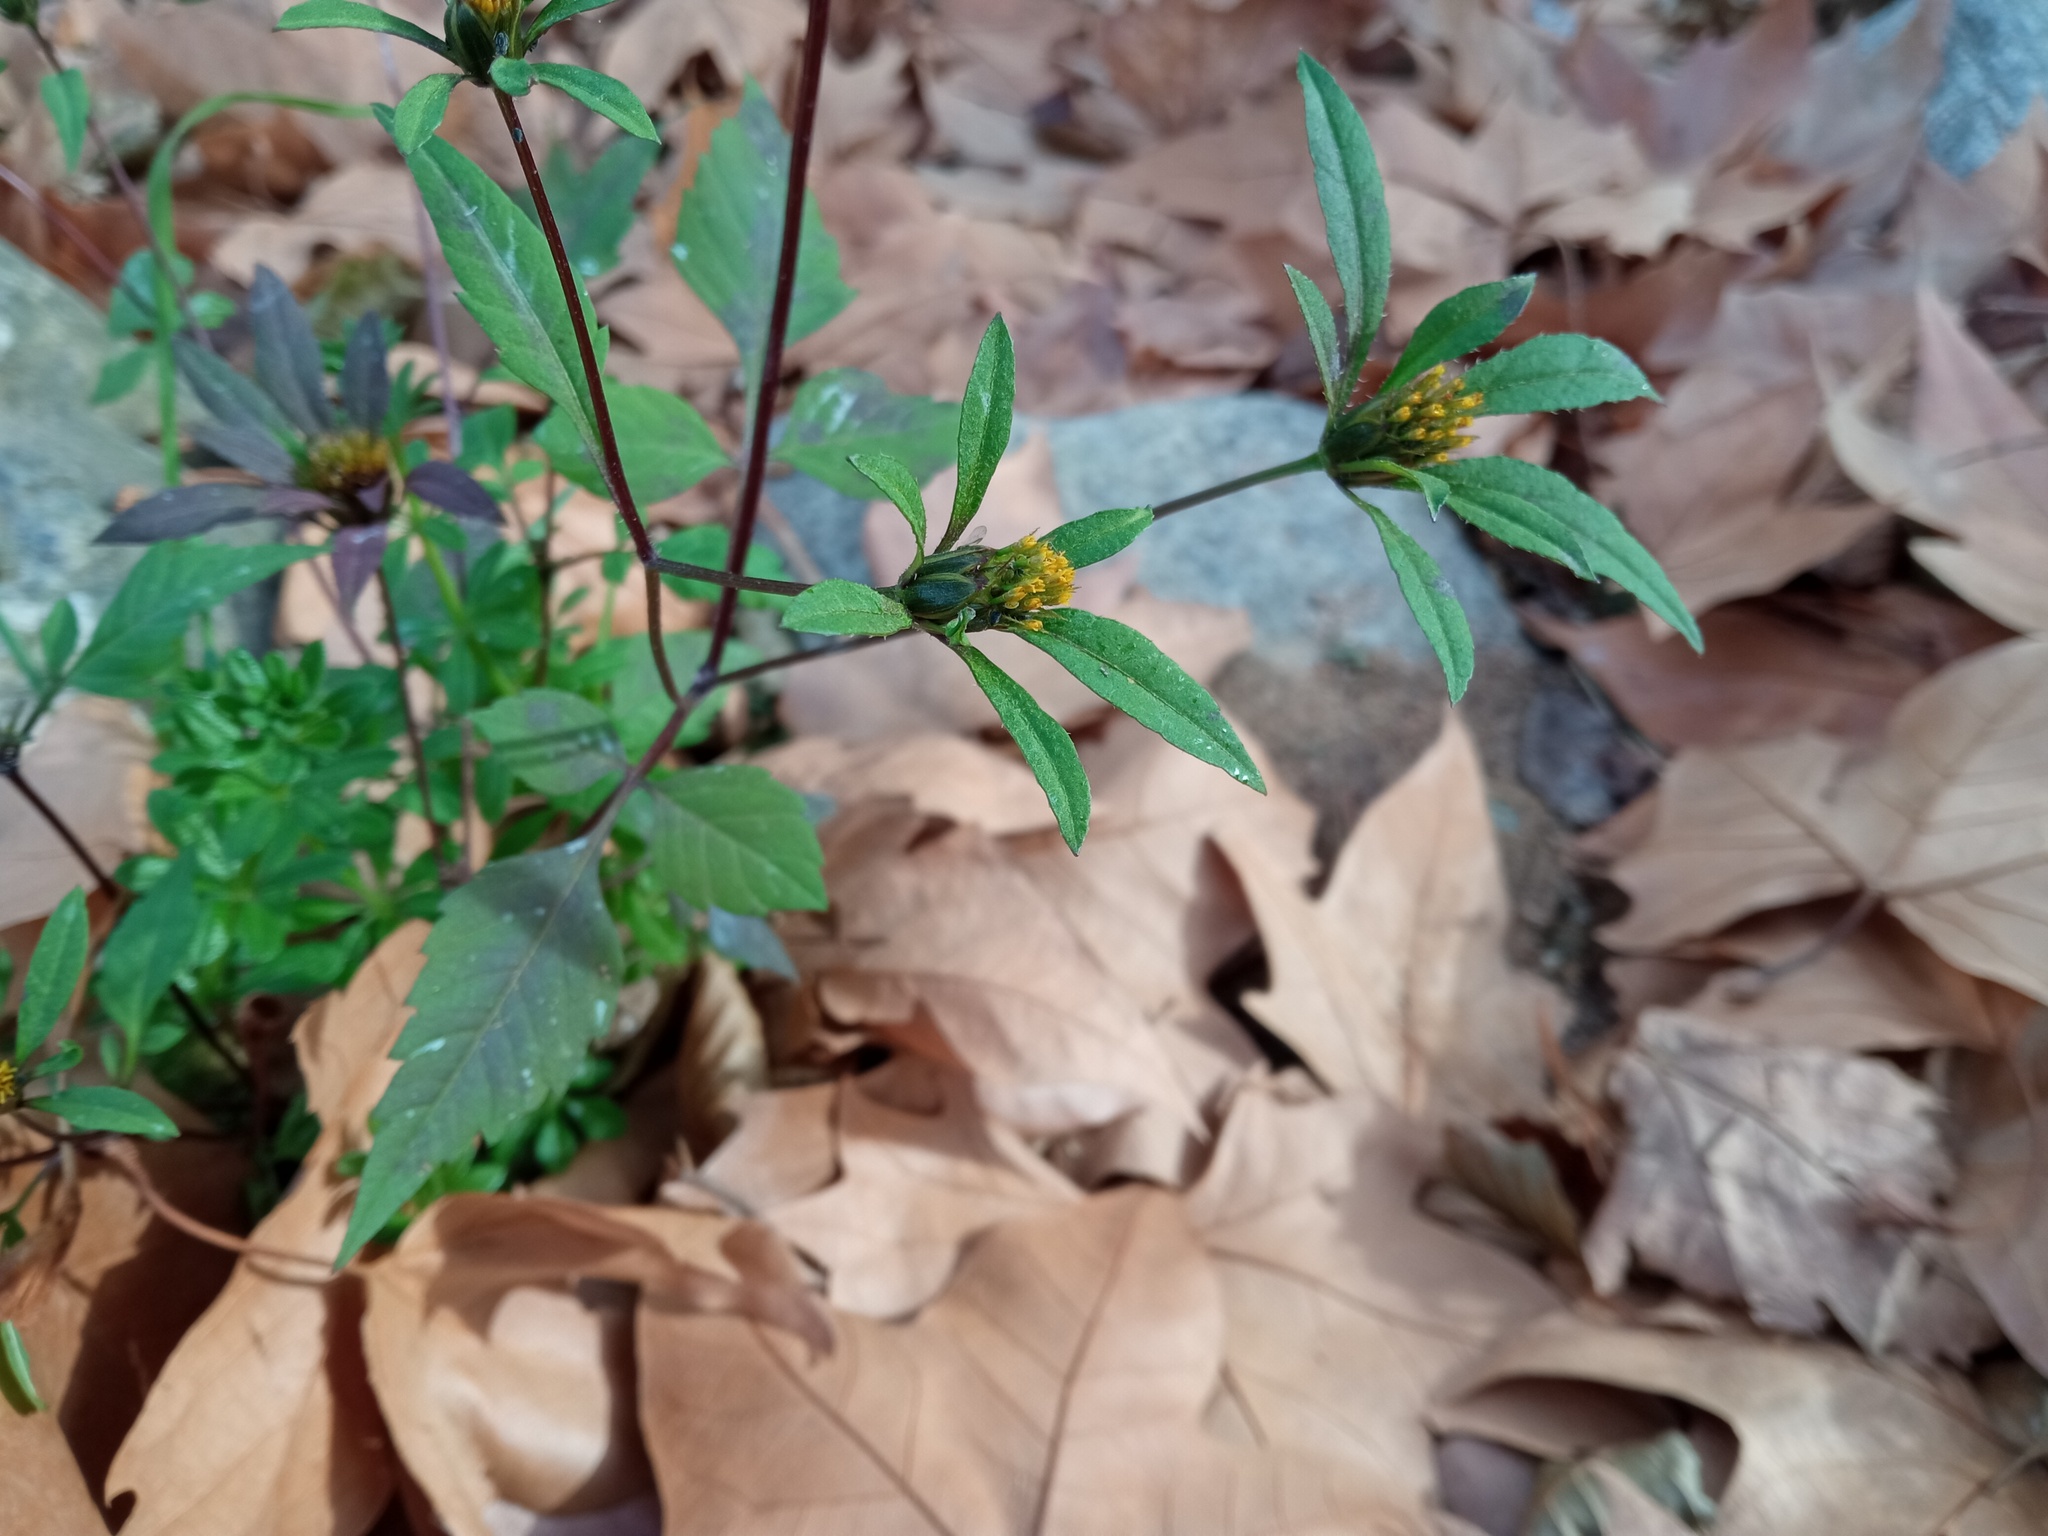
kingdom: Plantae
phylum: Tracheophyta
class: Magnoliopsida
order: Asterales
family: Asteraceae
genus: Bidens
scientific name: Bidens frondosa
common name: Beggarticks
